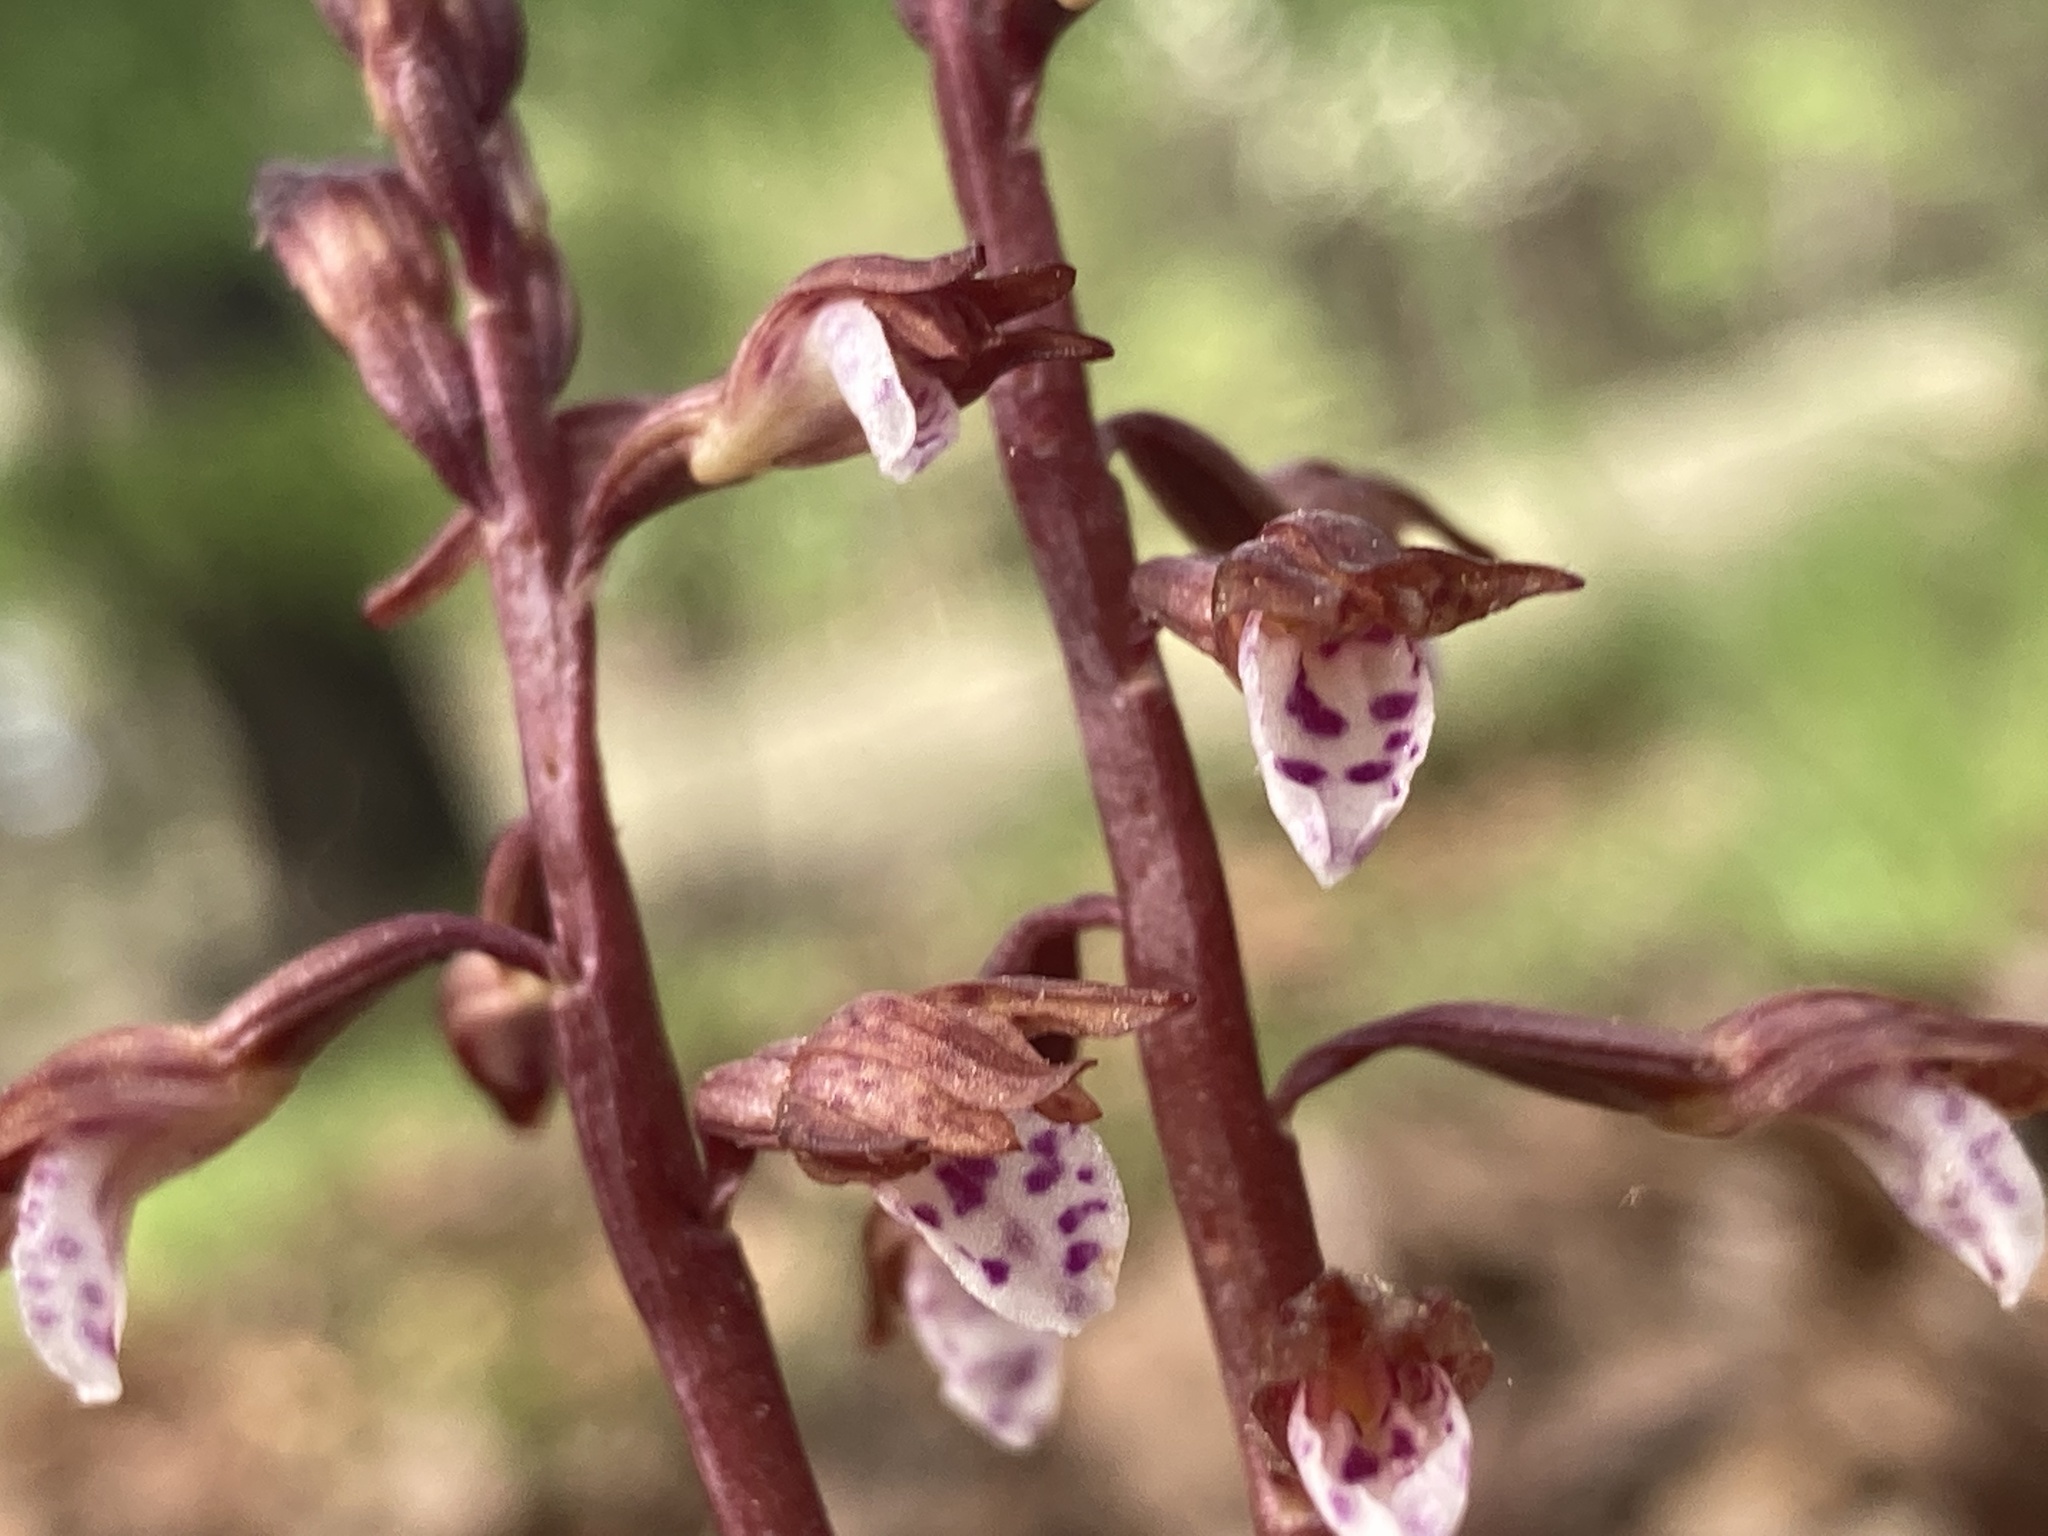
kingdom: Plantae
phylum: Tracheophyta
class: Liliopsida
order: Asparagales
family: Orchidaceae
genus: Corallorhiza
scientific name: Corallorhiza wisteriana
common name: Spring coralroot
